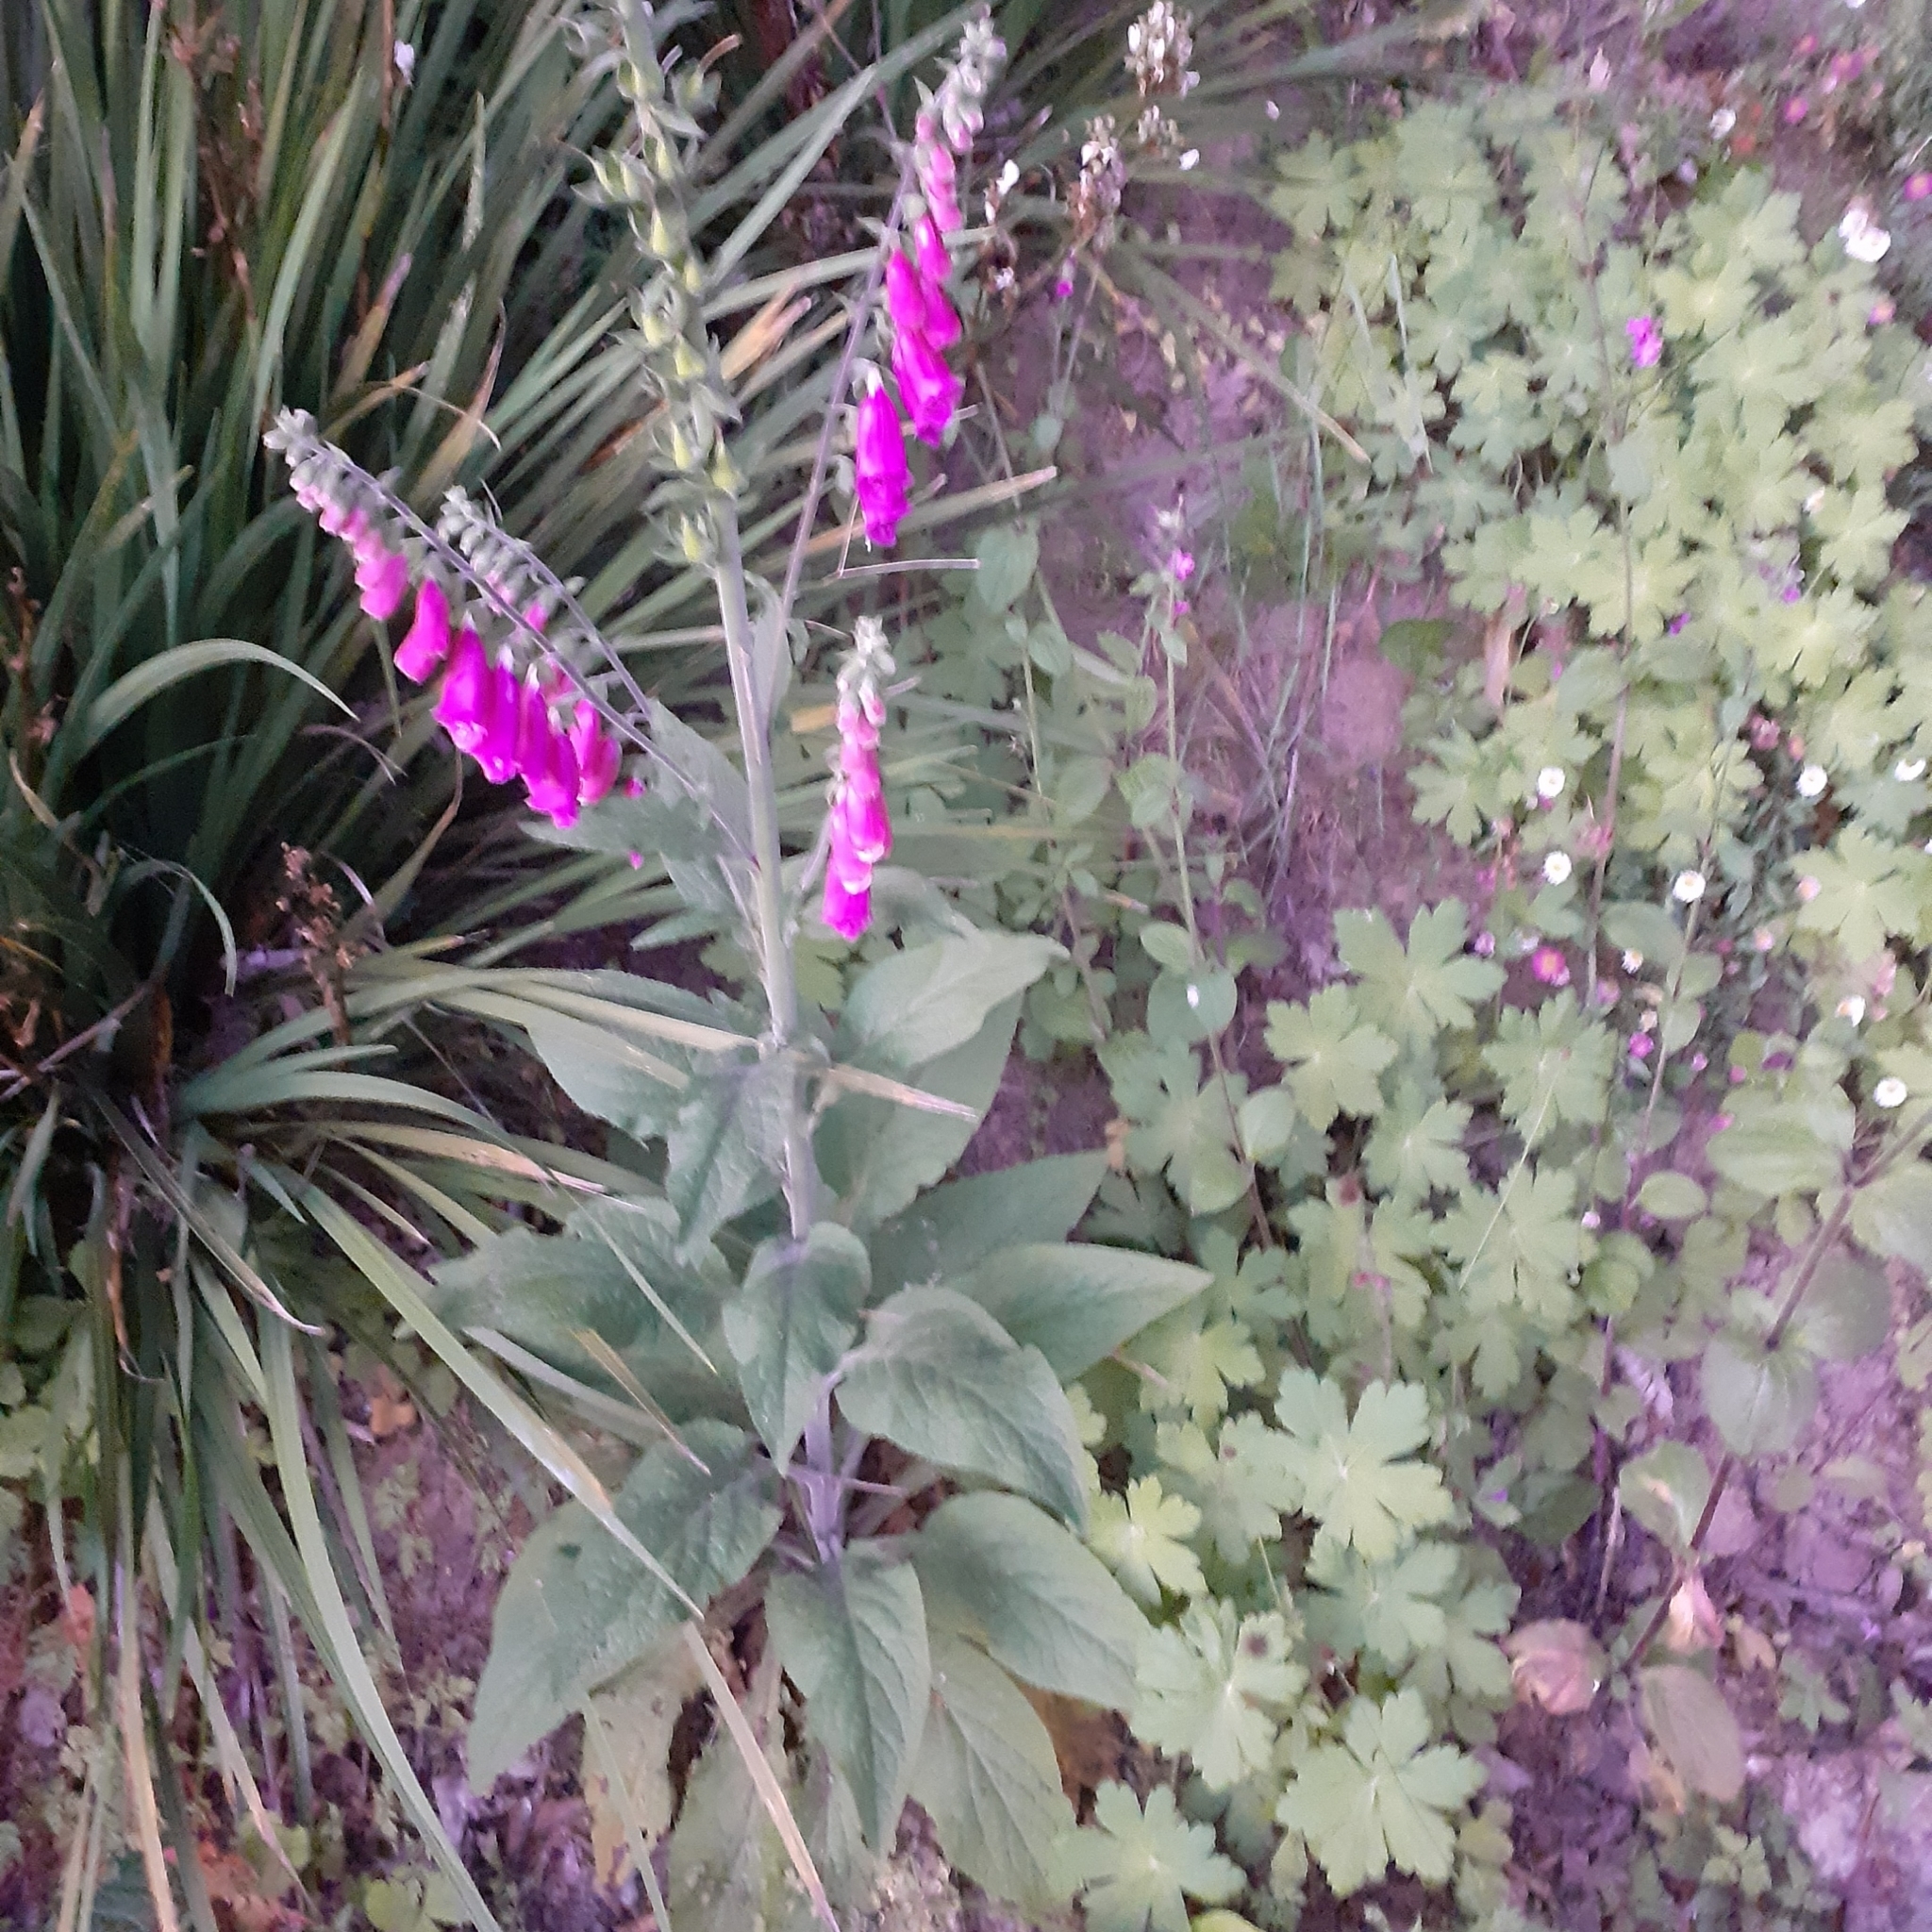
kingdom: Plantae
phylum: Tracheophyta
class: Magnoliopsida
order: Lamiales
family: Plantaginaceae
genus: Digitalis
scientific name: Digitalis purpurea
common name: Foxglove
